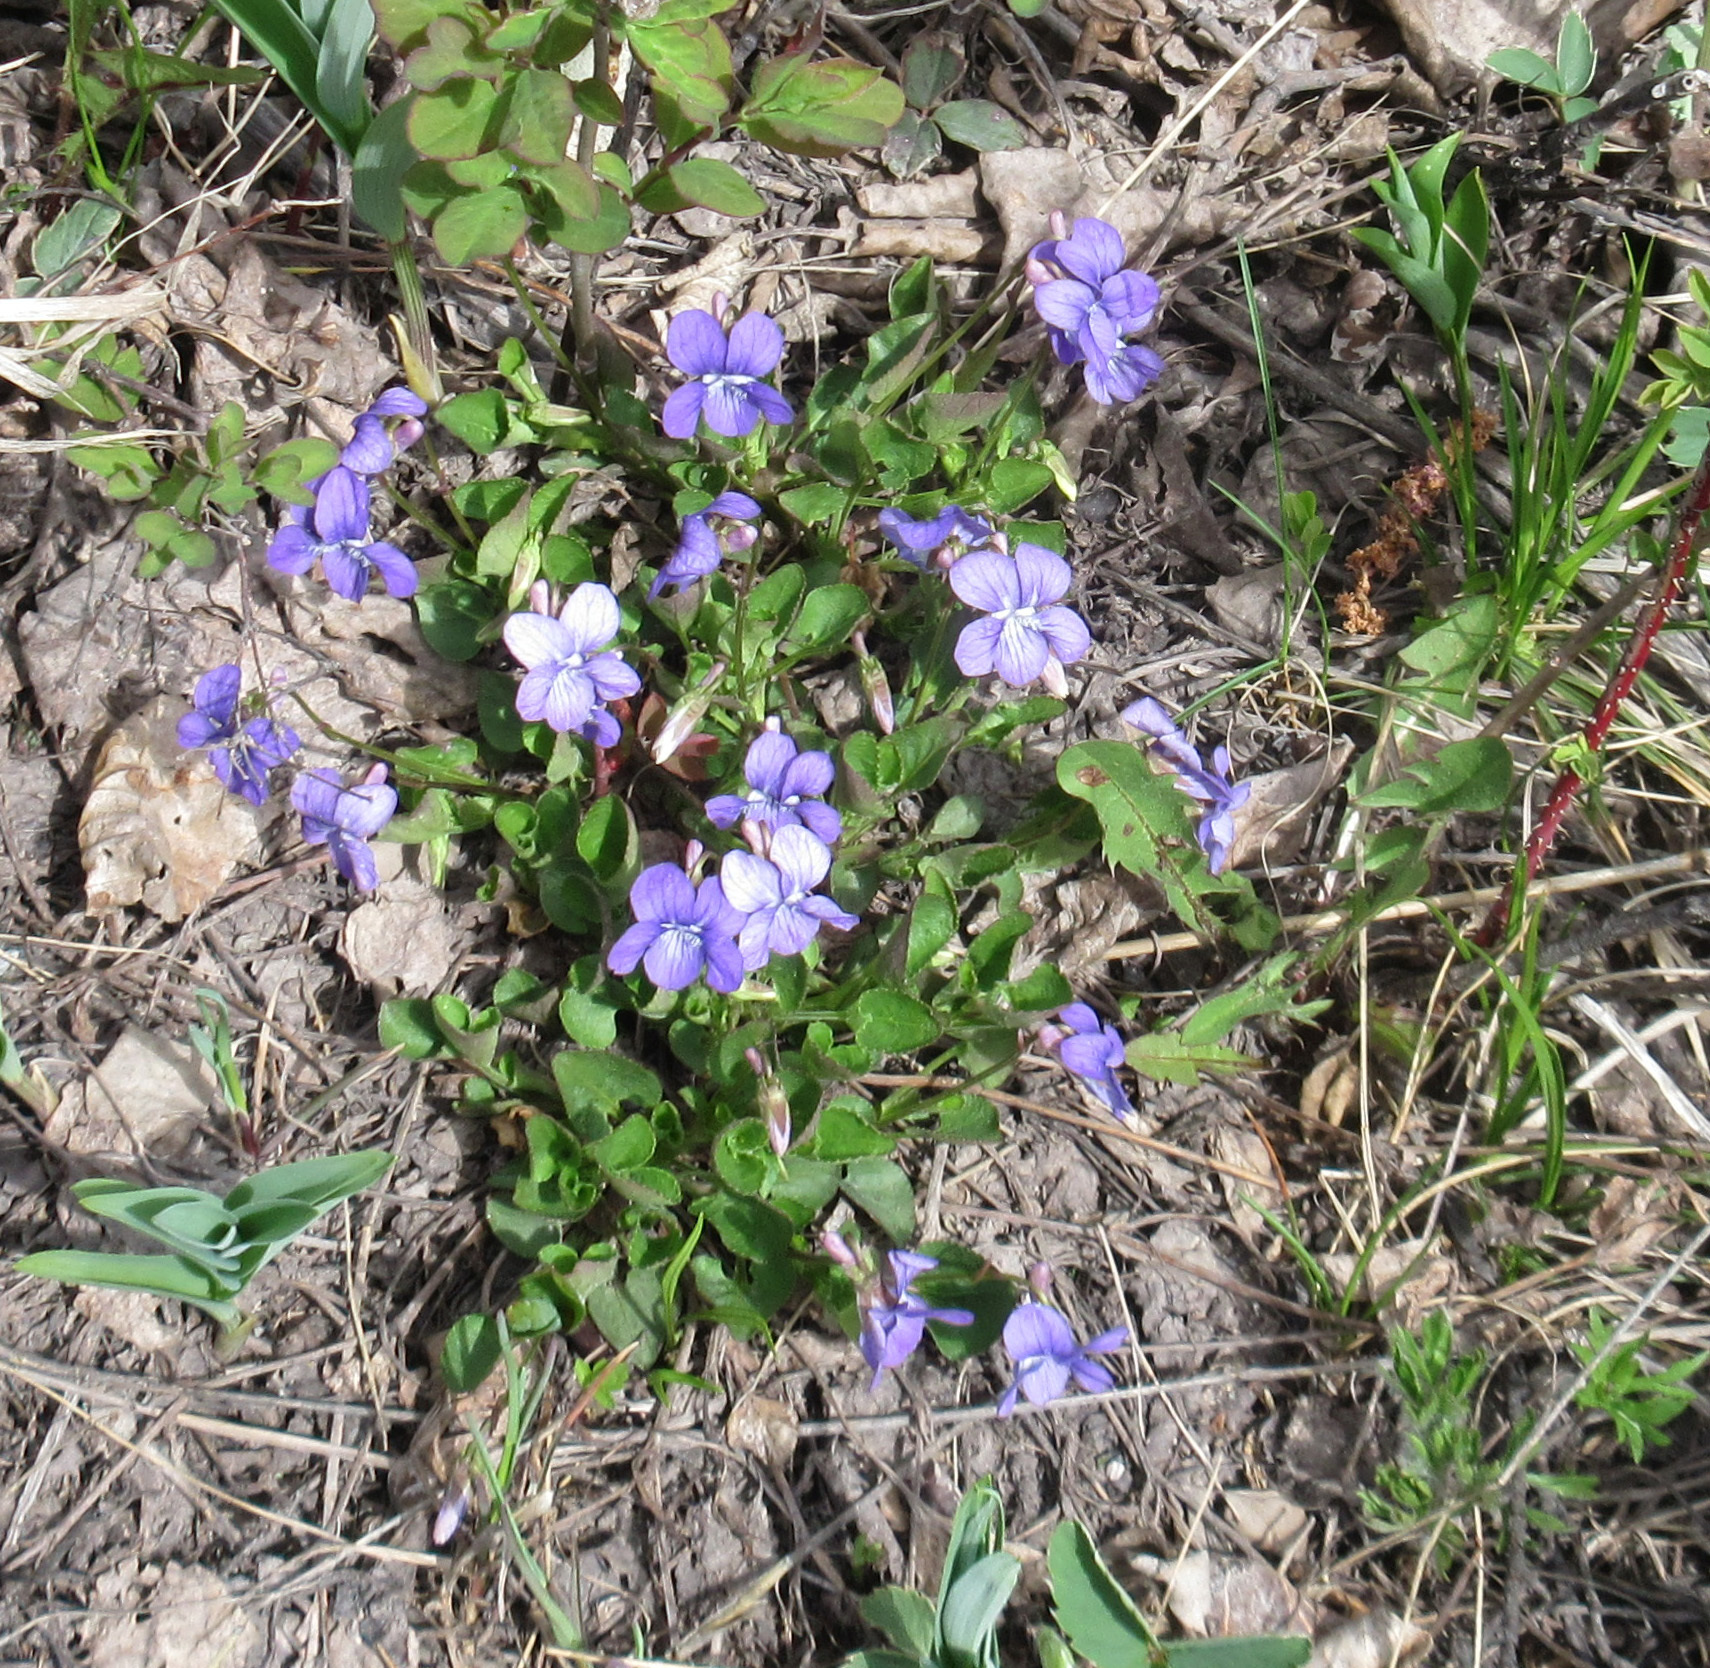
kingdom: Plantae
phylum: Tracheophyta
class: Magnoliopsida
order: Malpighiales
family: Violaceae
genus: Viola
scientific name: Viola adunca
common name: Sand violet
